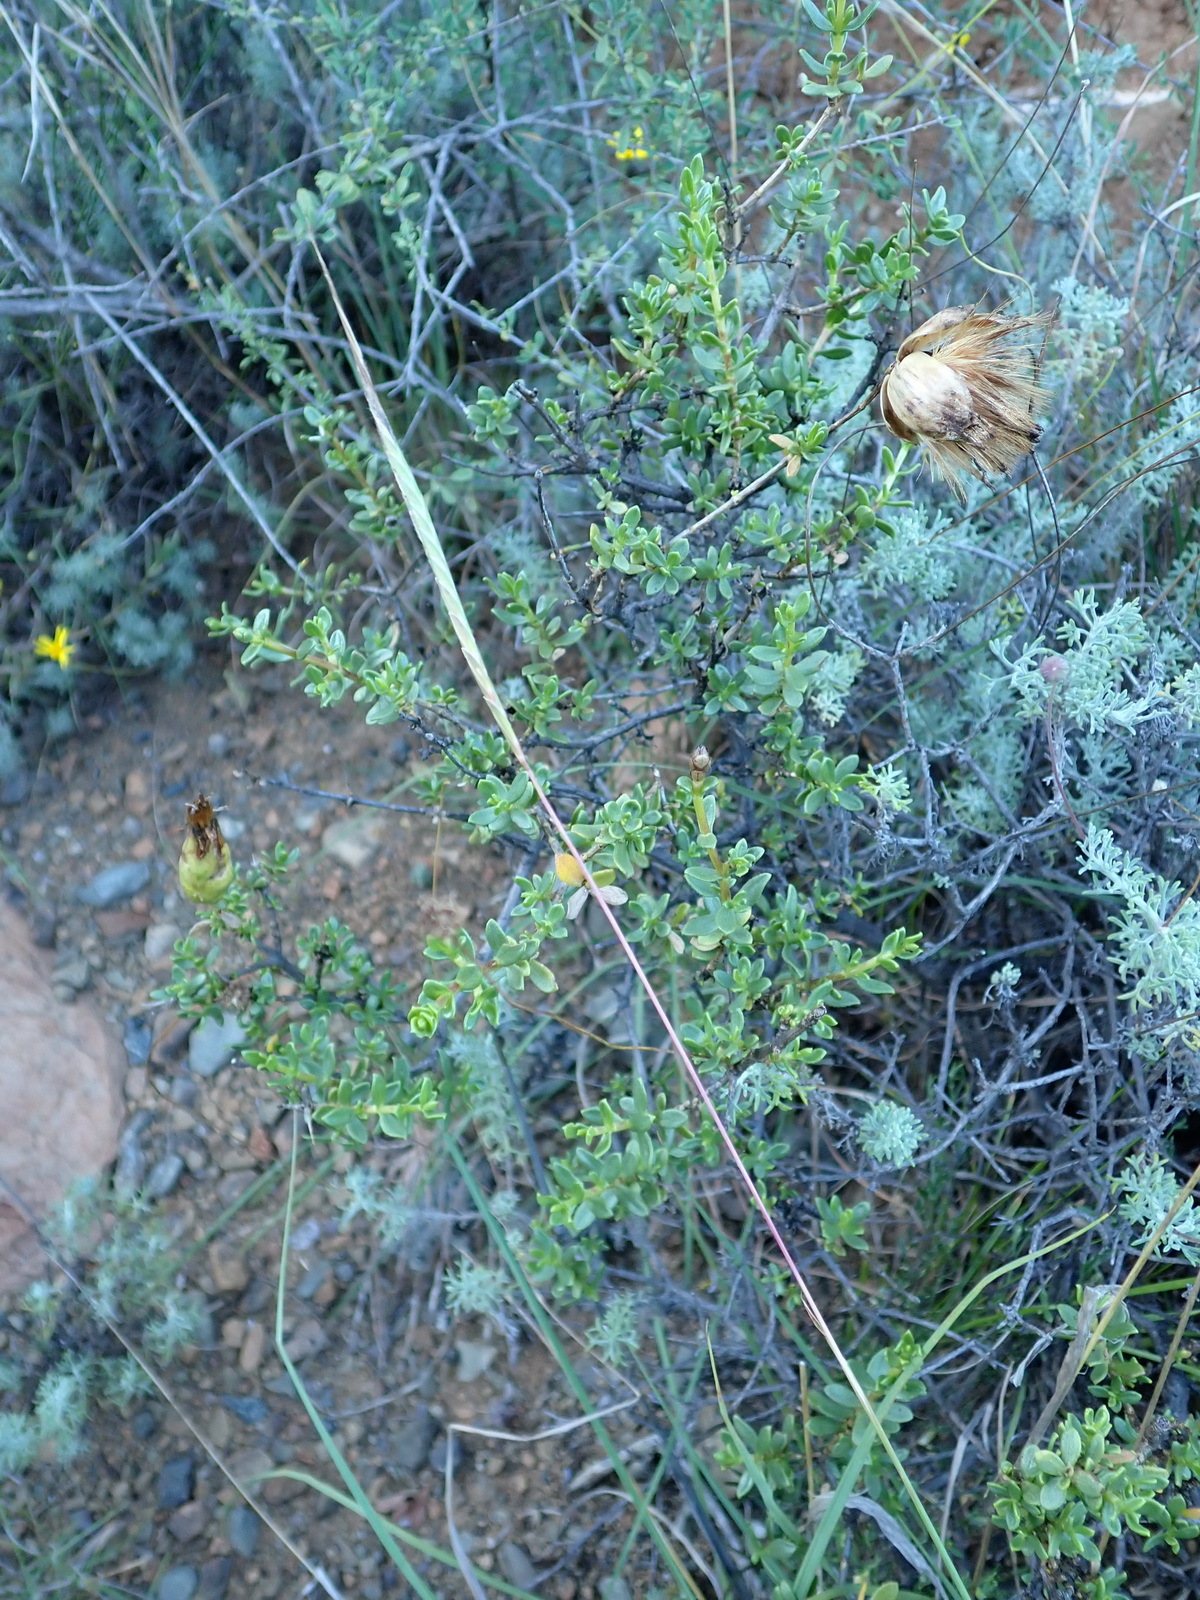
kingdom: Plantae
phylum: Tracheophyta
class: Magnoliopsida
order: Asterales
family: Asteraceae
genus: Pteronia
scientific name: Pteronia adenocarpa
